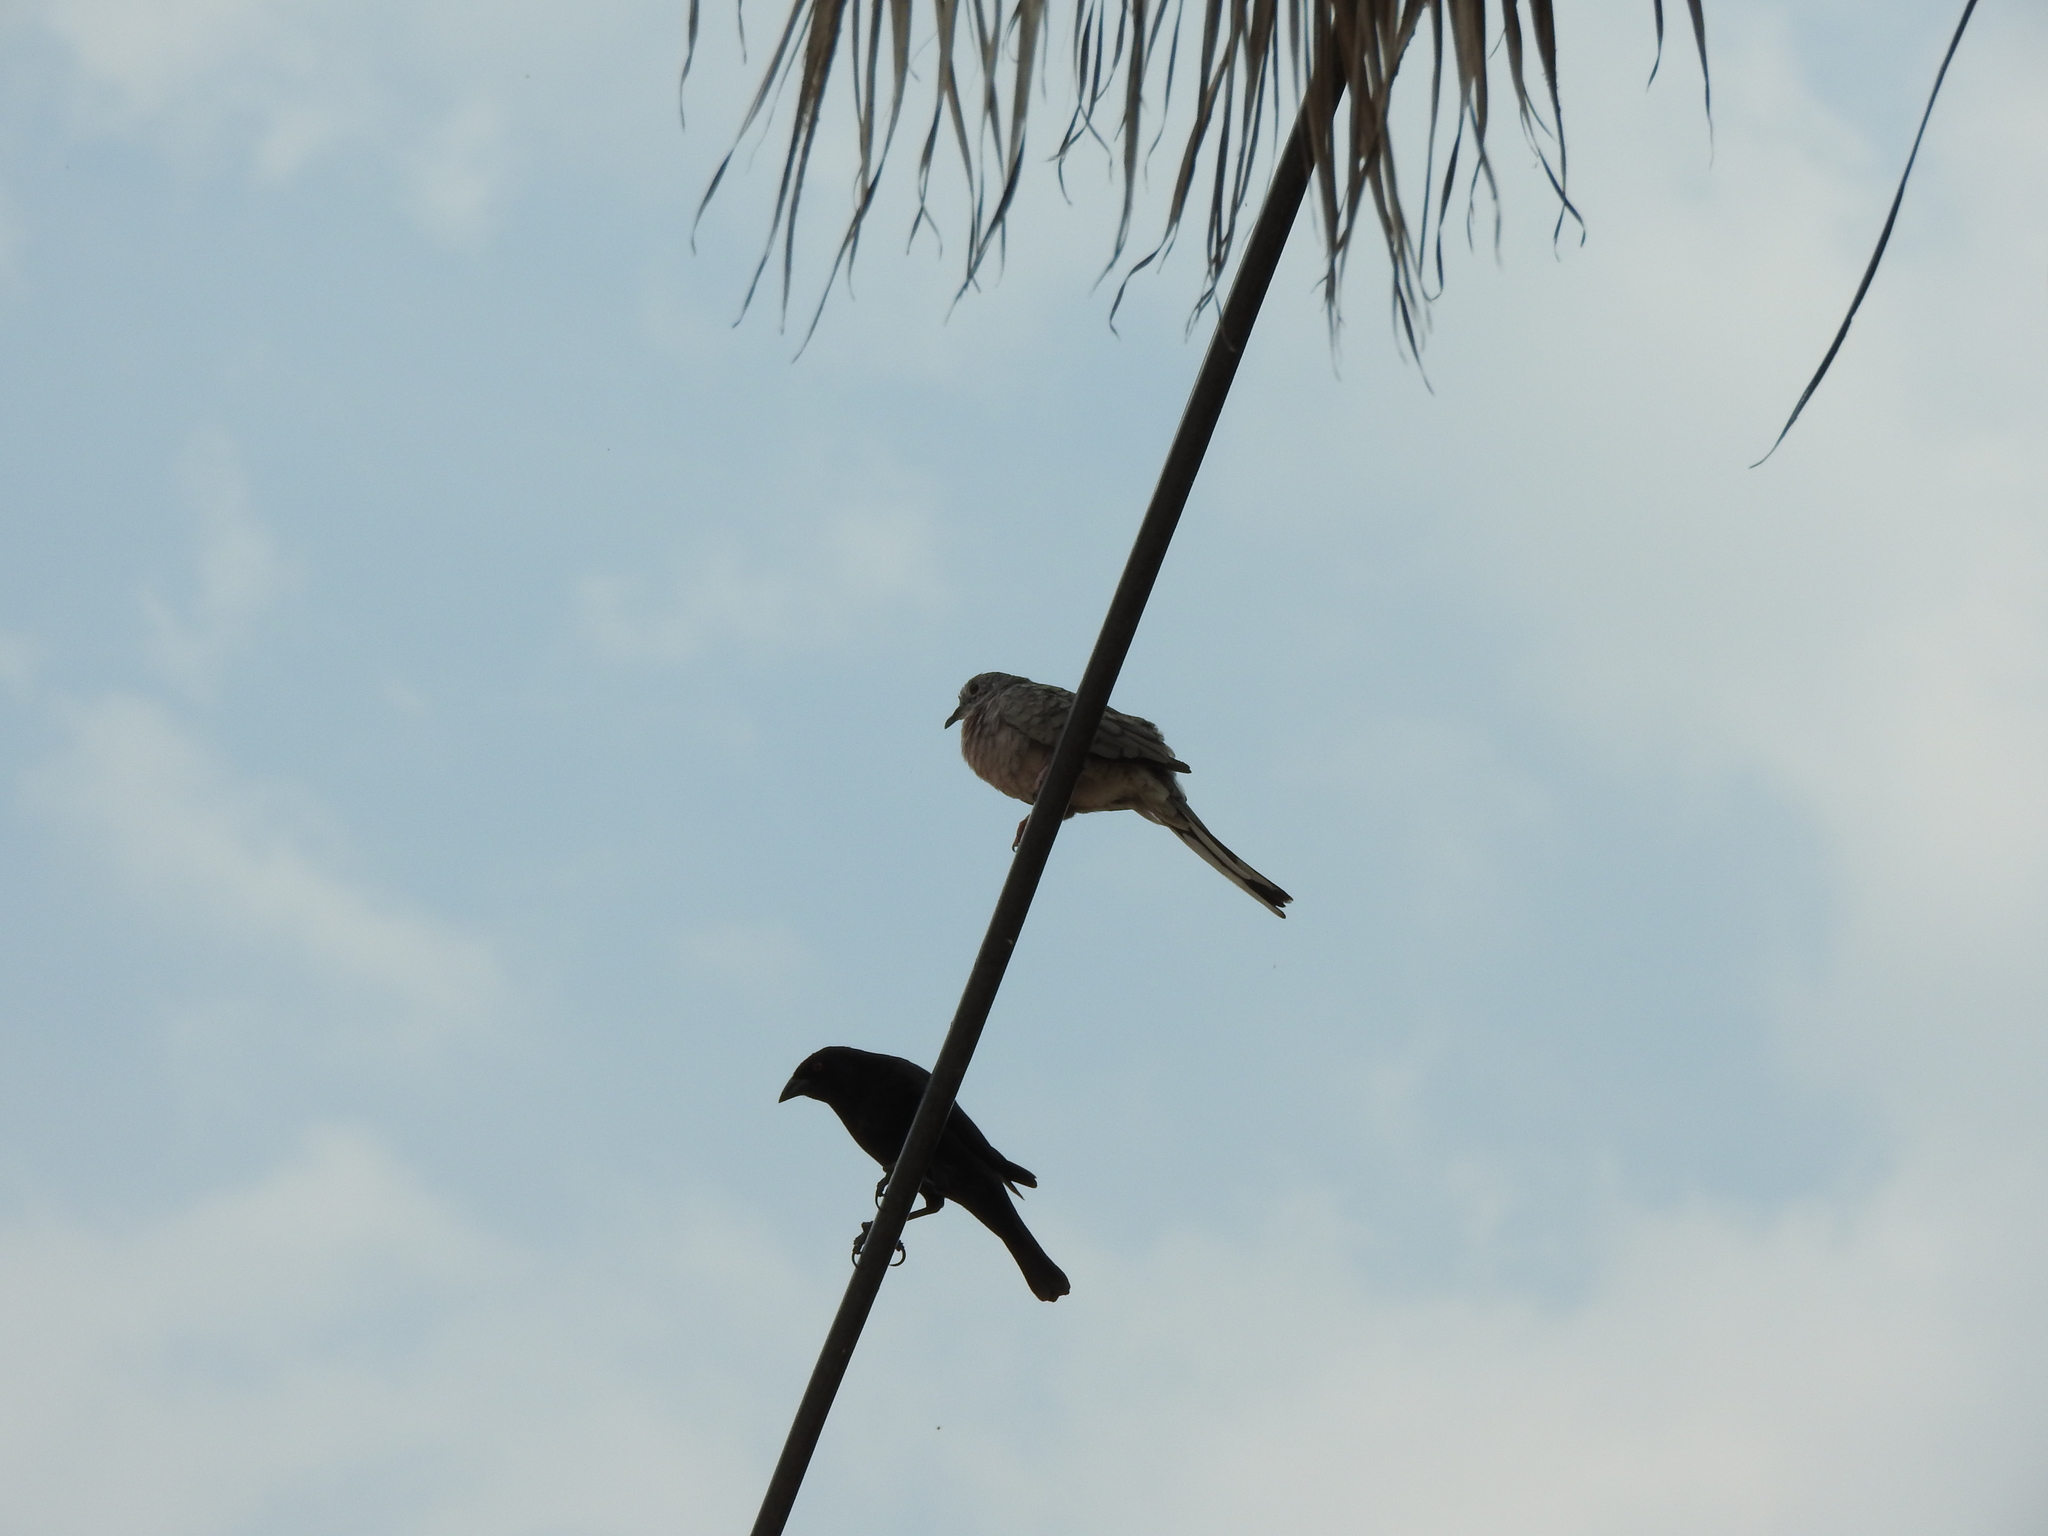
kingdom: Animalia
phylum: Chordata
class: Aves
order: Columbiformes
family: Columbidae
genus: Columbina
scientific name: Columbina inca
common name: Inca dove
